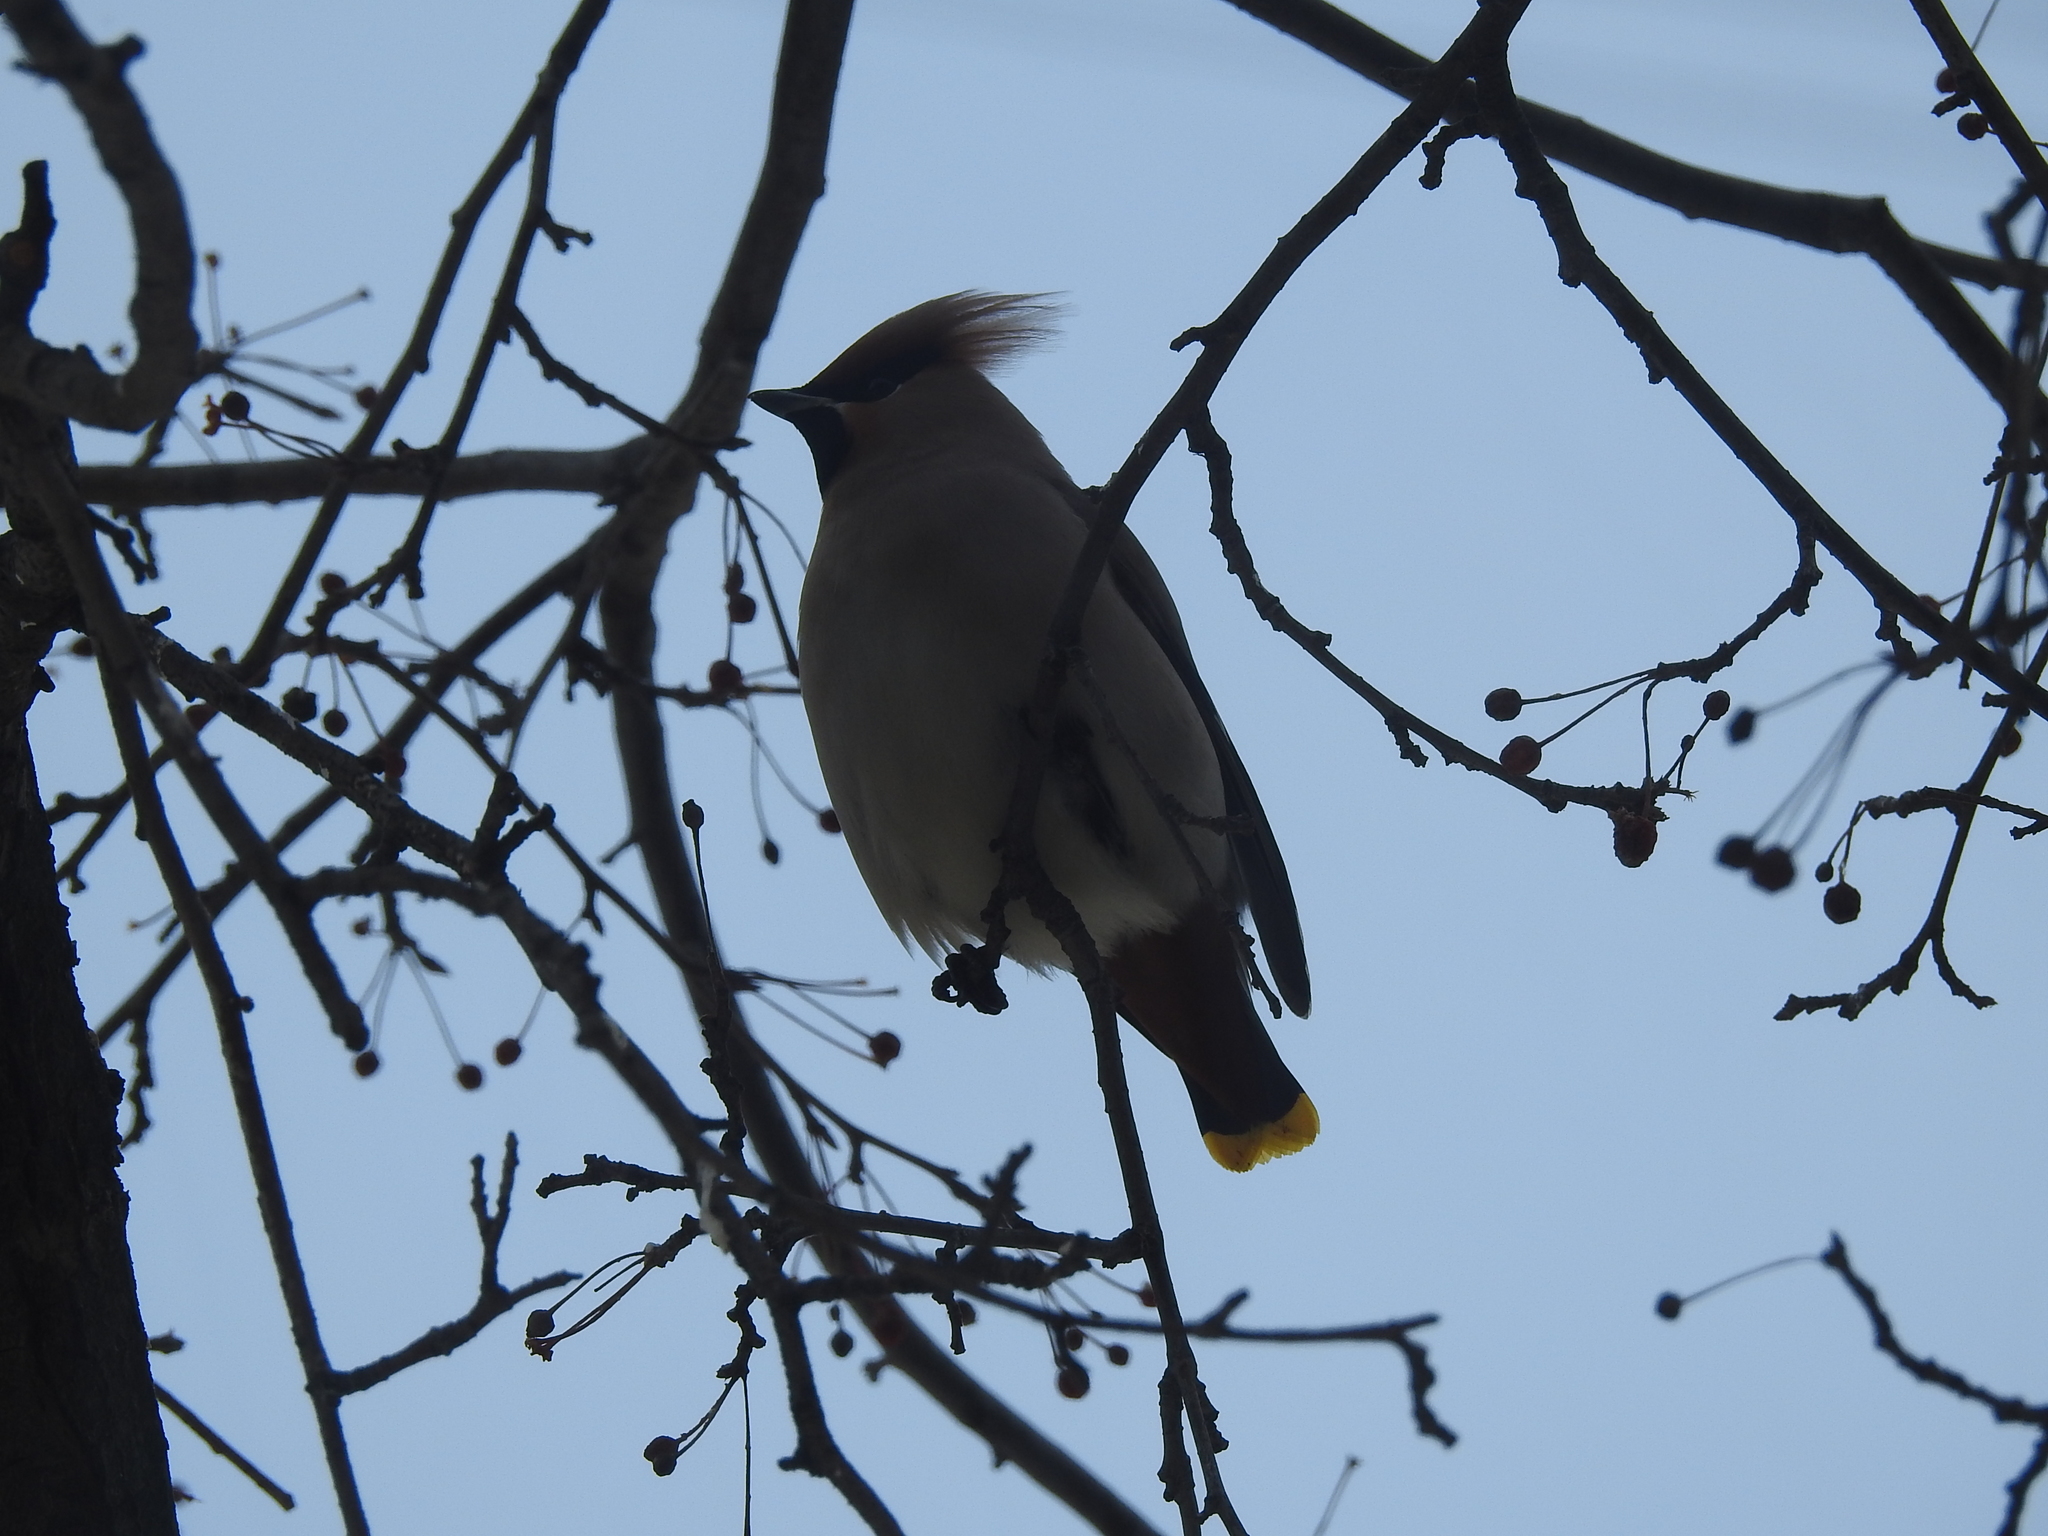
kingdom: Animalia
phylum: Chordata
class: Aves
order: Passeriformes
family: Bombycillidae
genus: Bombycilla
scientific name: Bombycilla garrulus
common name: Bohemian waxwing
